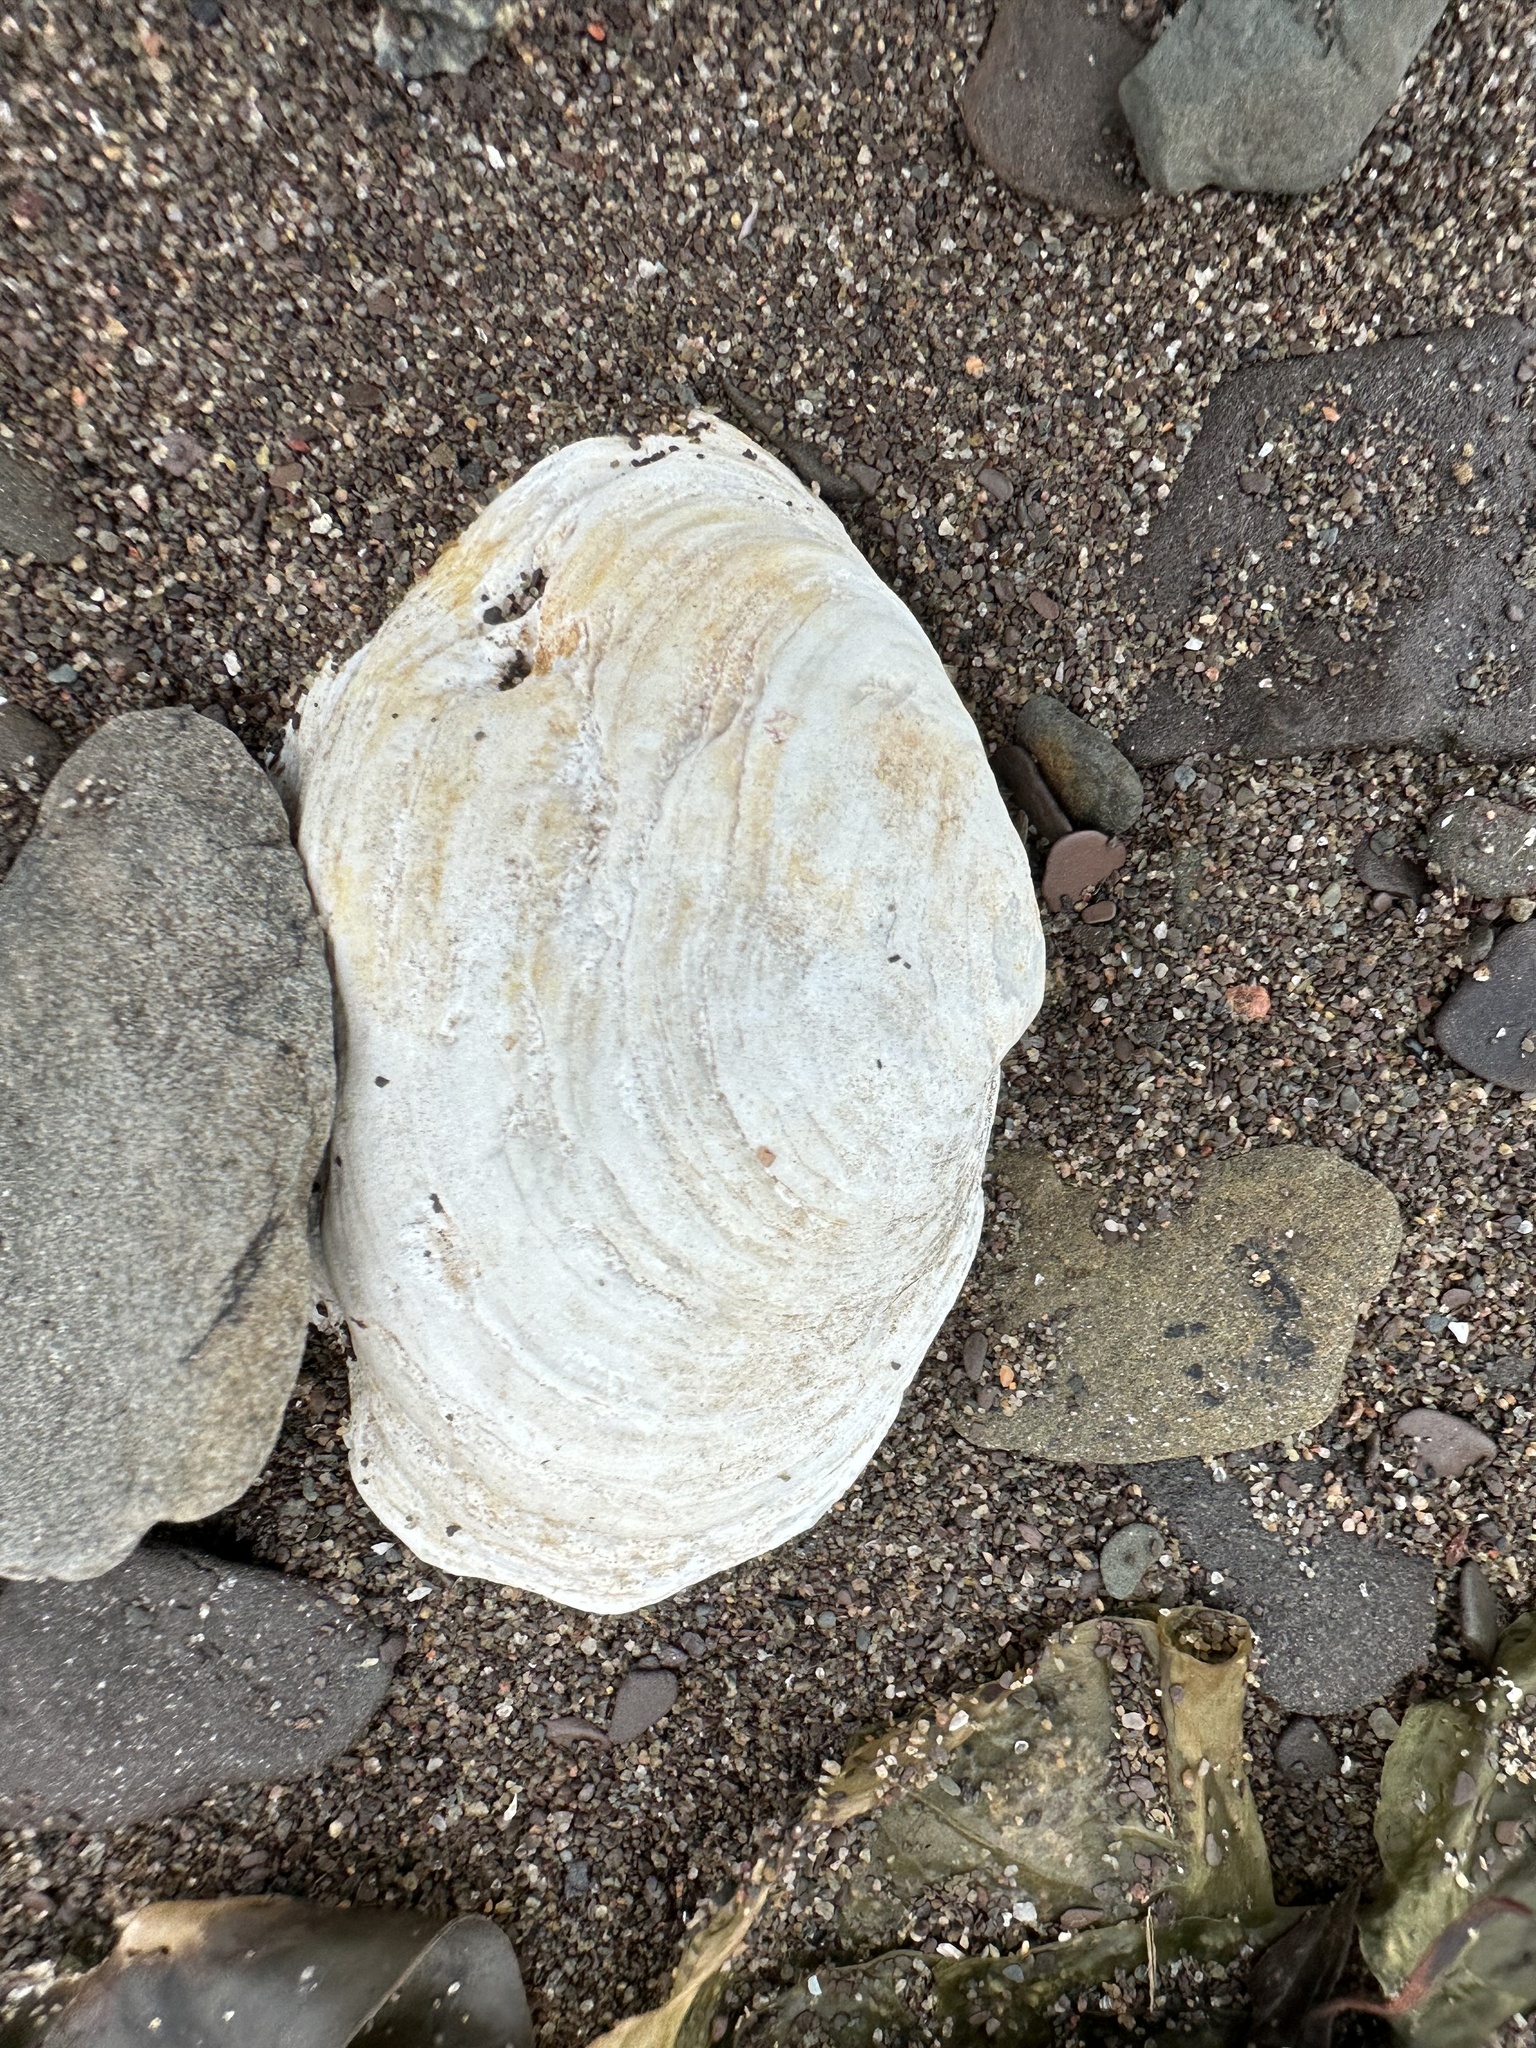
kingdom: Animalia
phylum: Mollusca
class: Bivalvia
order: Myida
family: Myidae
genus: Mya
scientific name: Mya arenaria
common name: Soft-shelled clam
